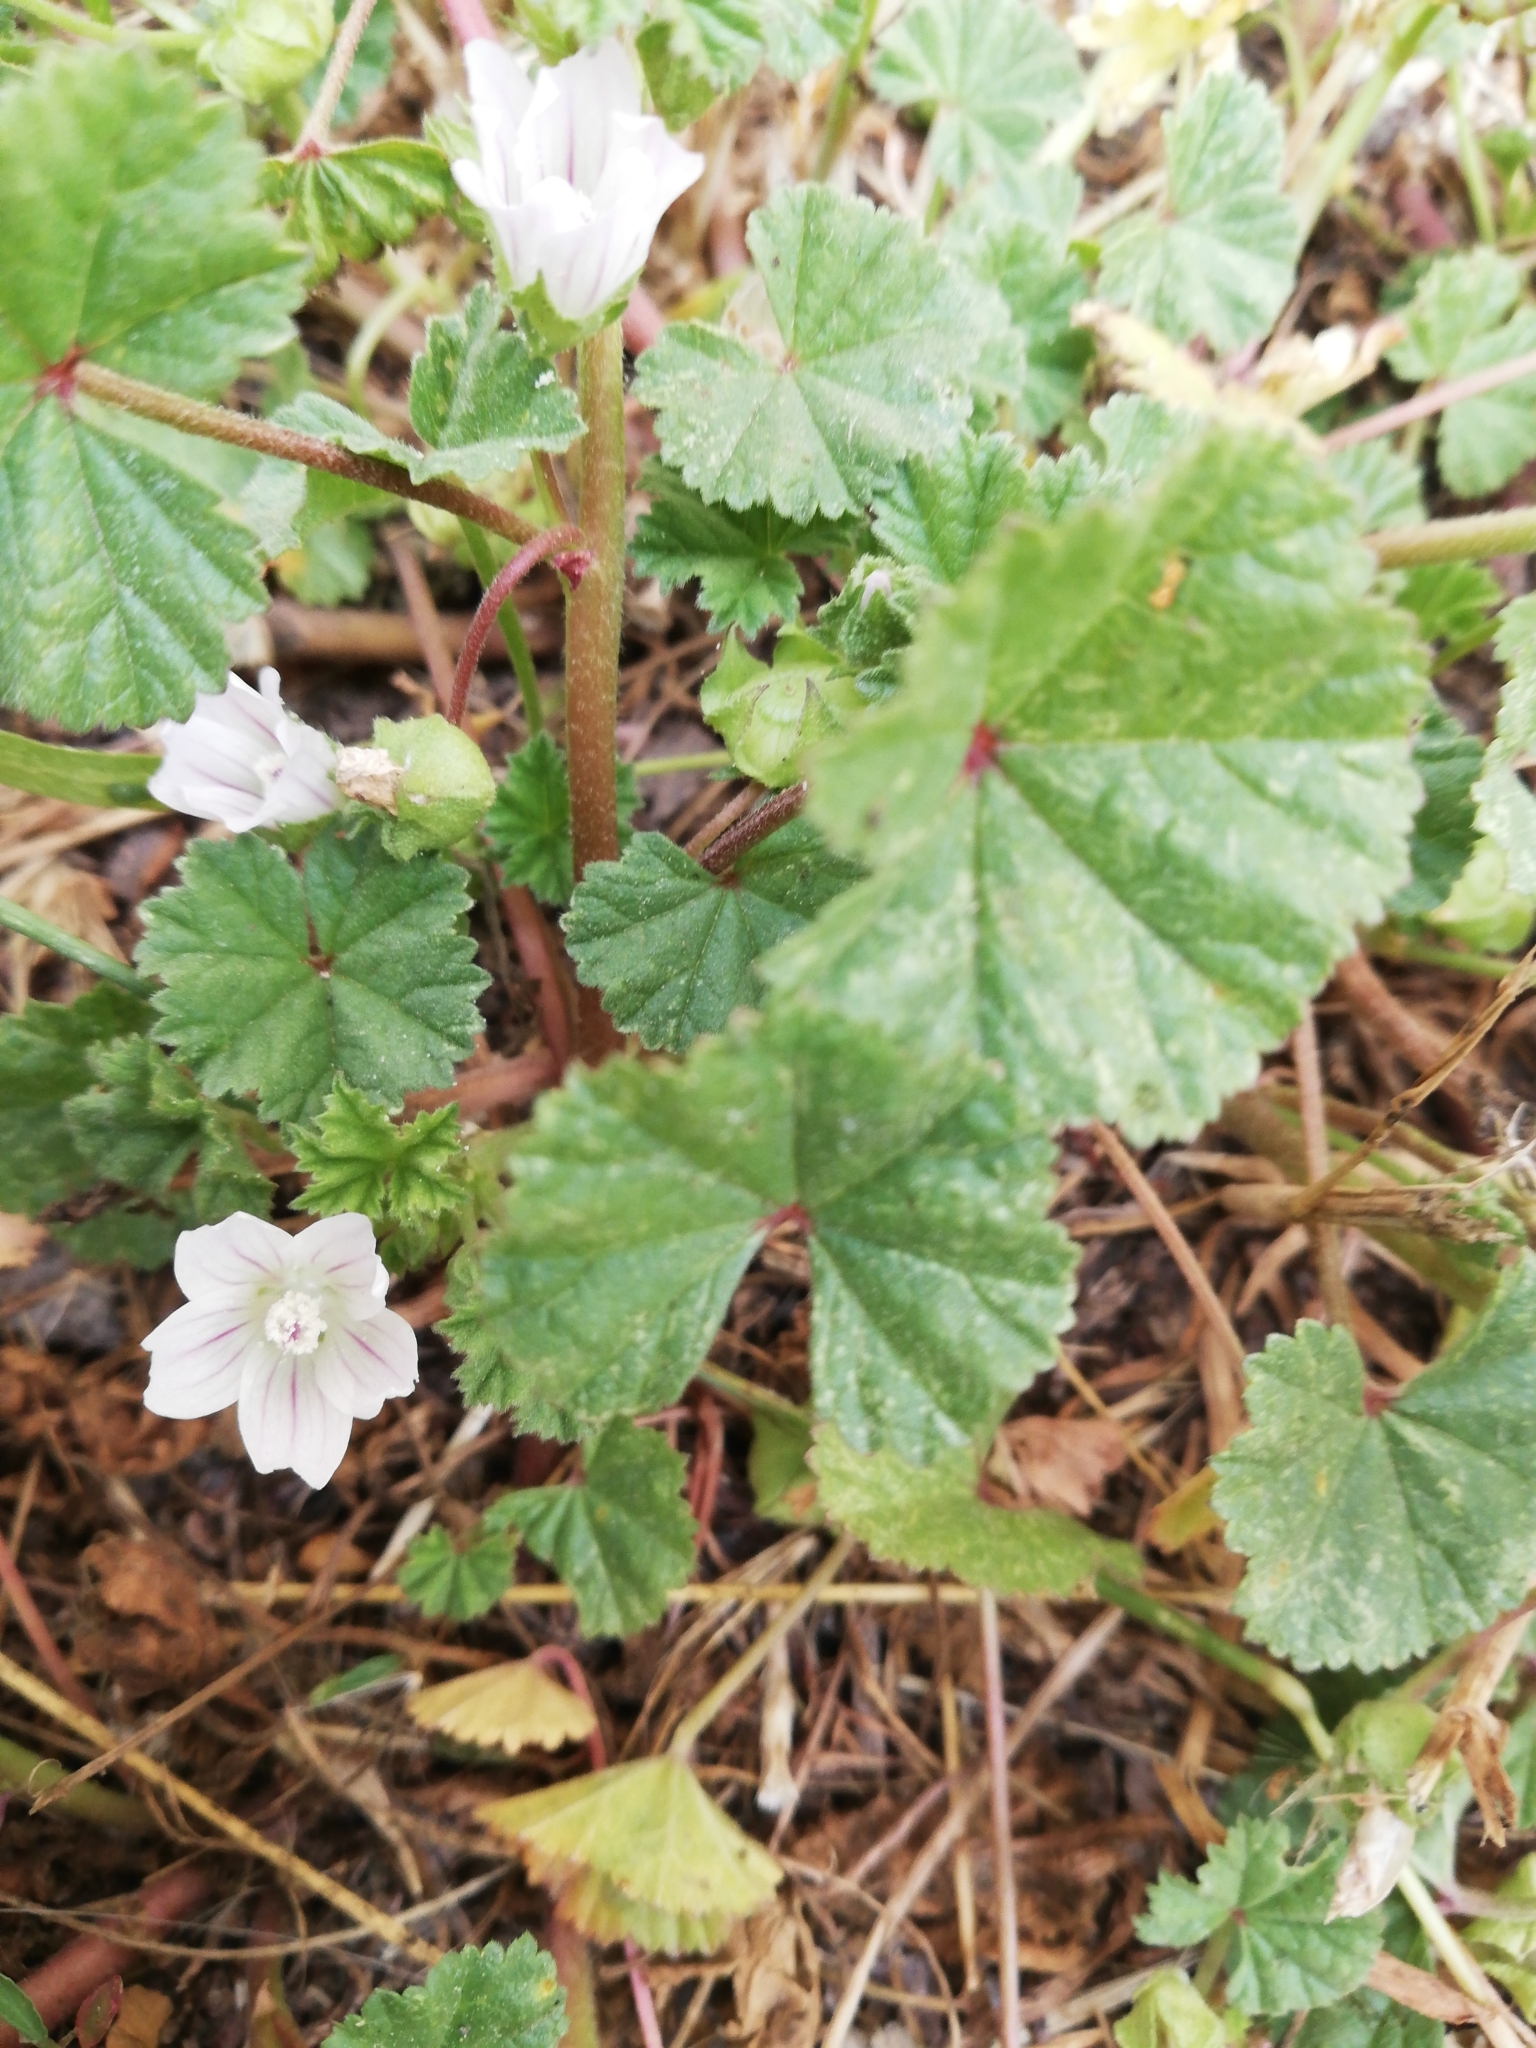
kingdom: Plantae
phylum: Tracheophyta
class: Magnoliopsida
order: Malvales
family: Malvaceae
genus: Malva
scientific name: Malva neglecta
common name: Common mallow
